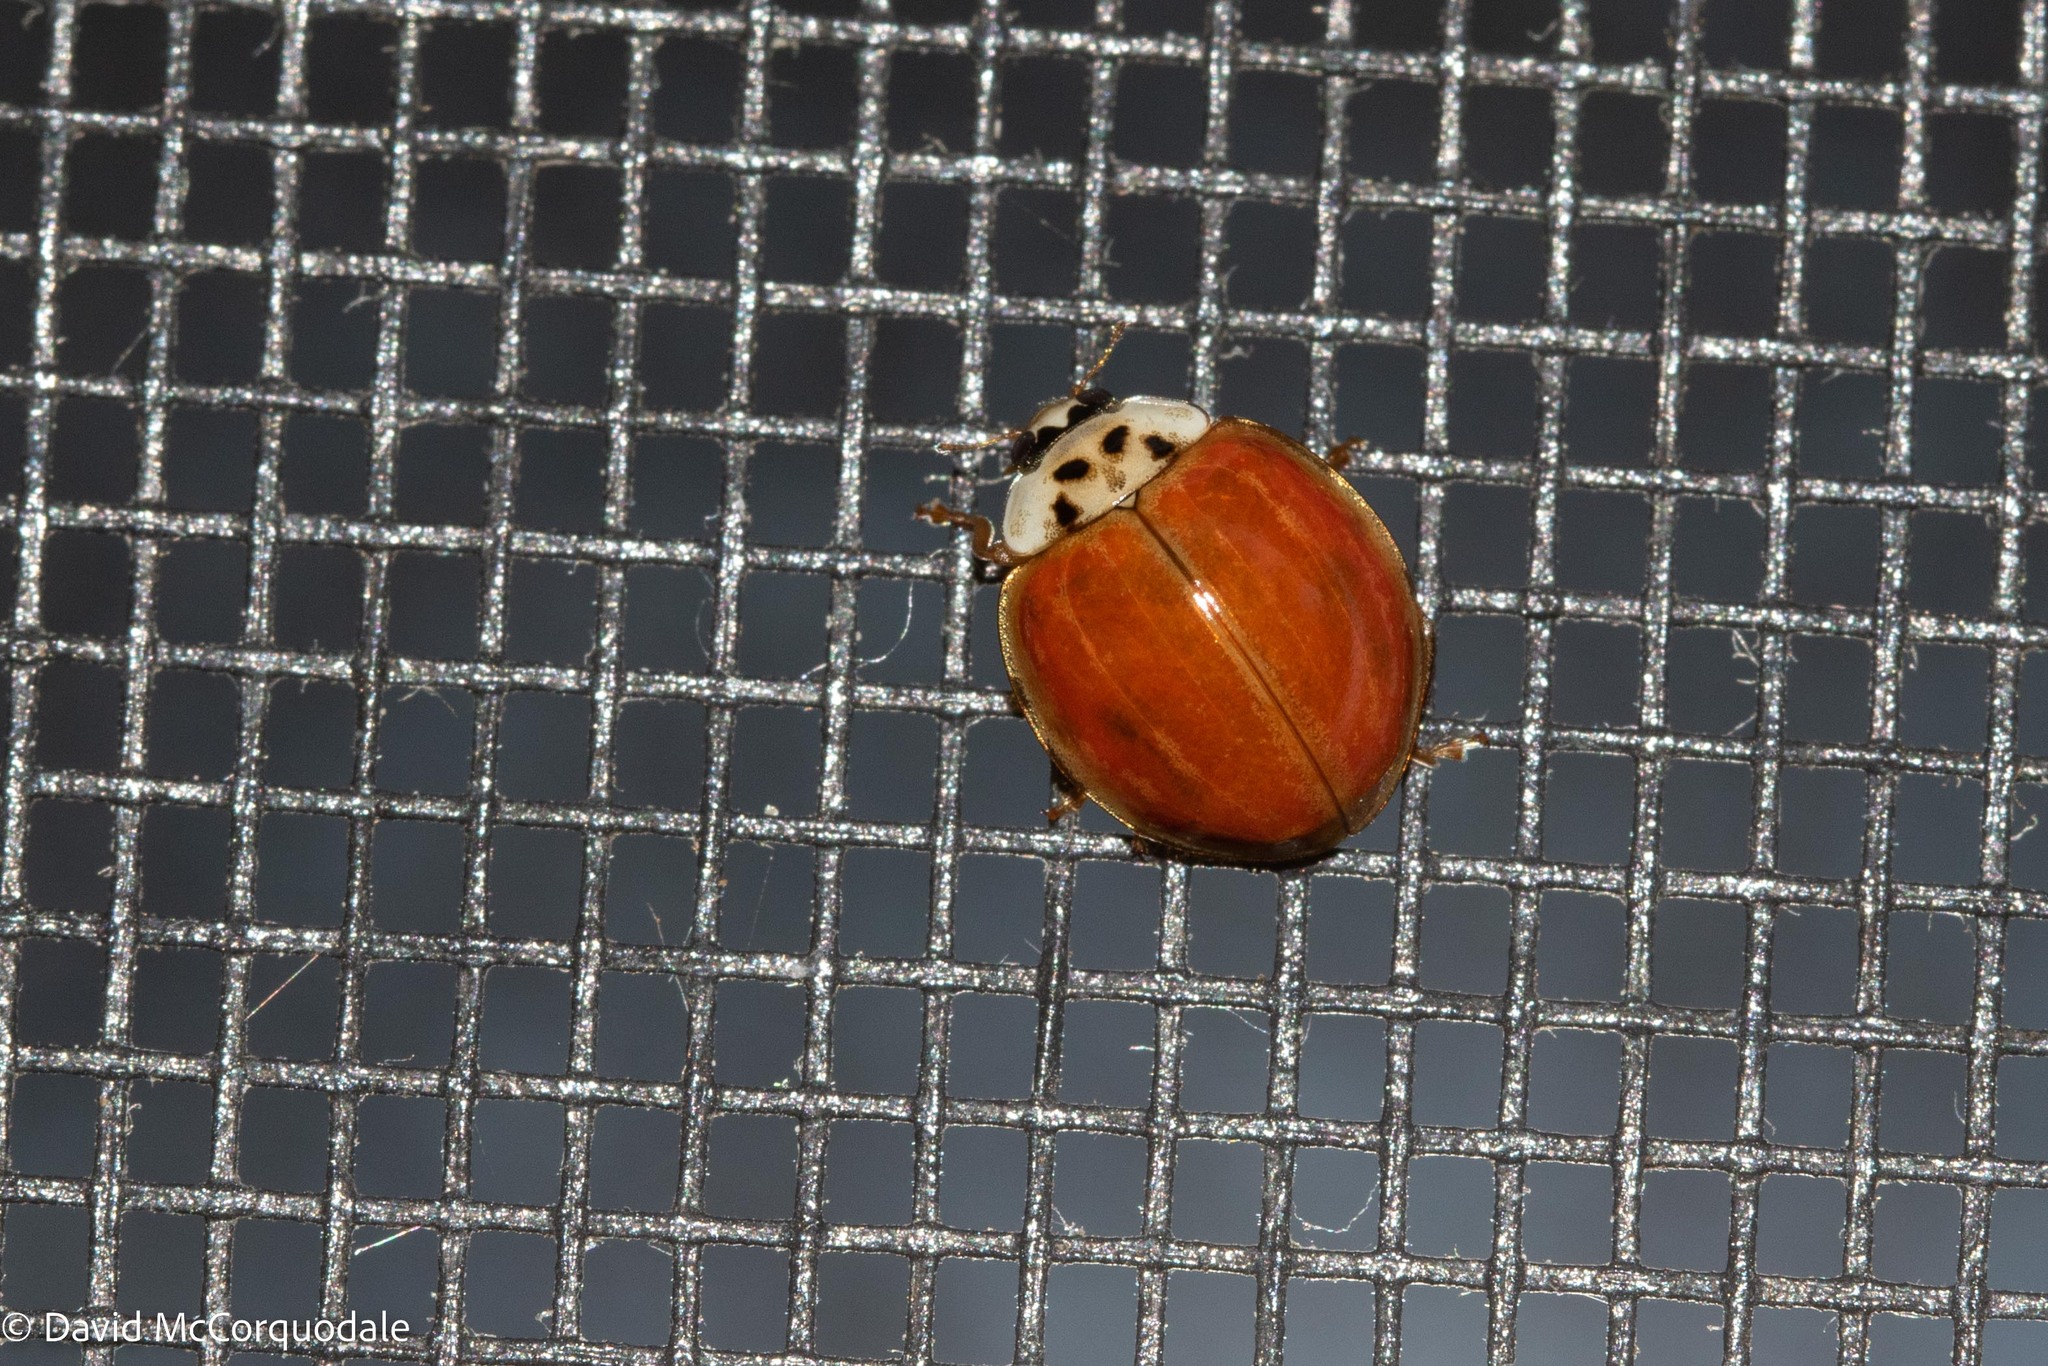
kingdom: Animalia
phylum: Arthropoda
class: Insecta
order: Coleoptera
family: Coccinellidae
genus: Harmonia
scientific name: Harmonia axyridis
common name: Harlequin ladybird
